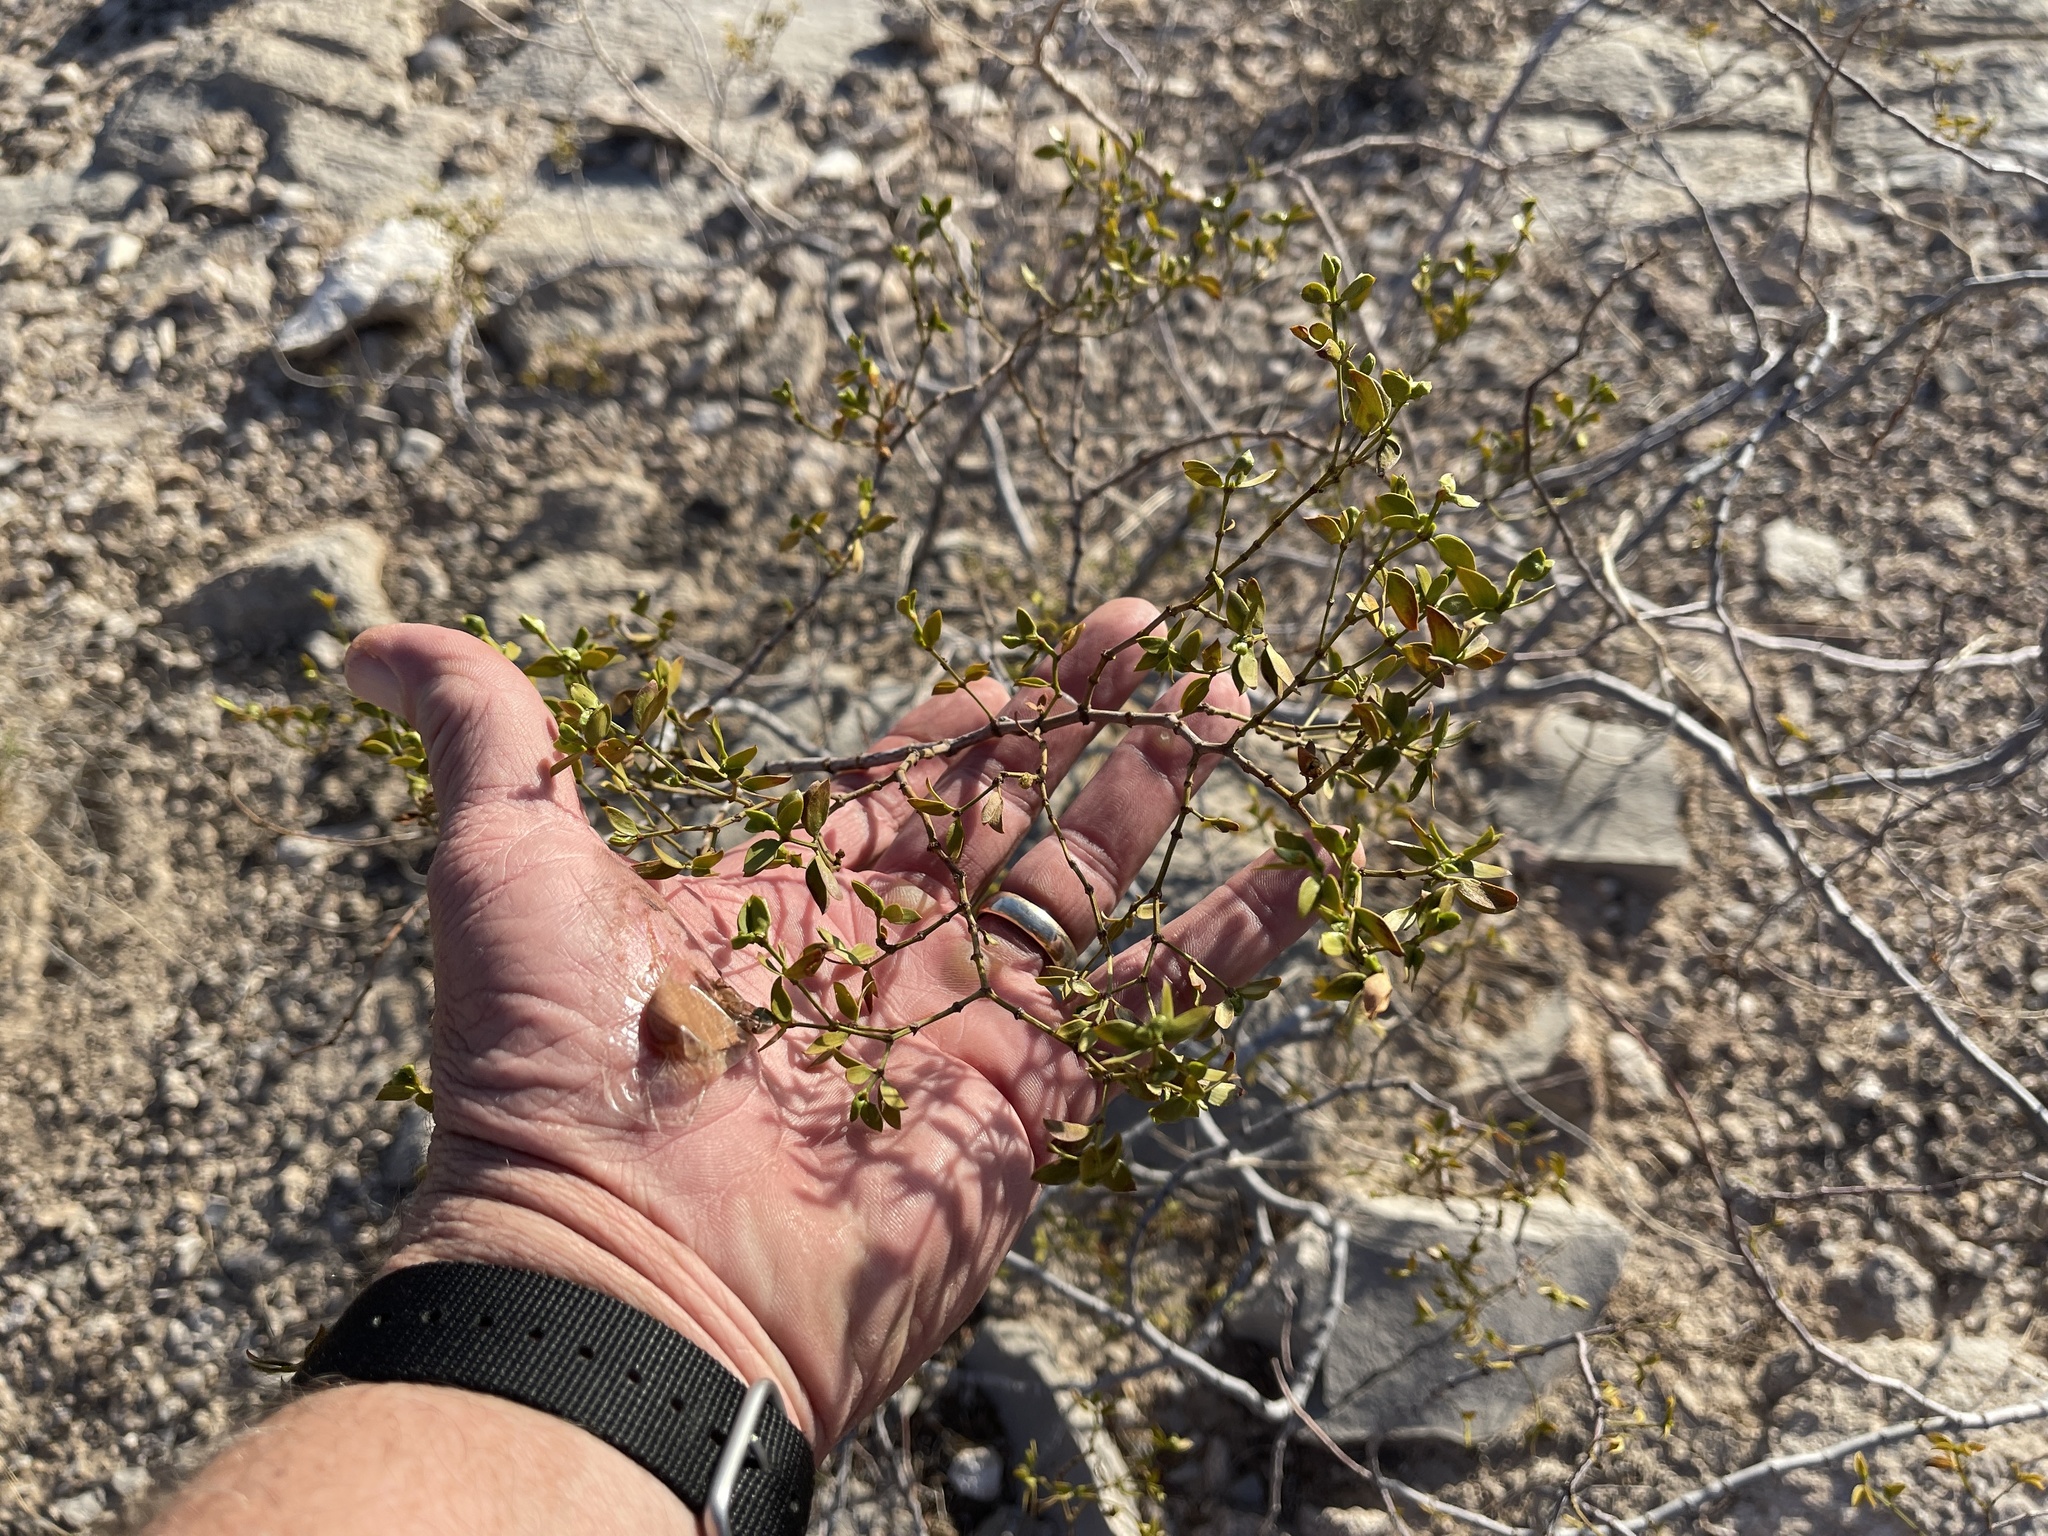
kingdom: Plantae
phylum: Tracheophyta
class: Magnoliopsida
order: Zygophyllales
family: Zygophyllaceae
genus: Larrea
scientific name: Larrea tridentata
